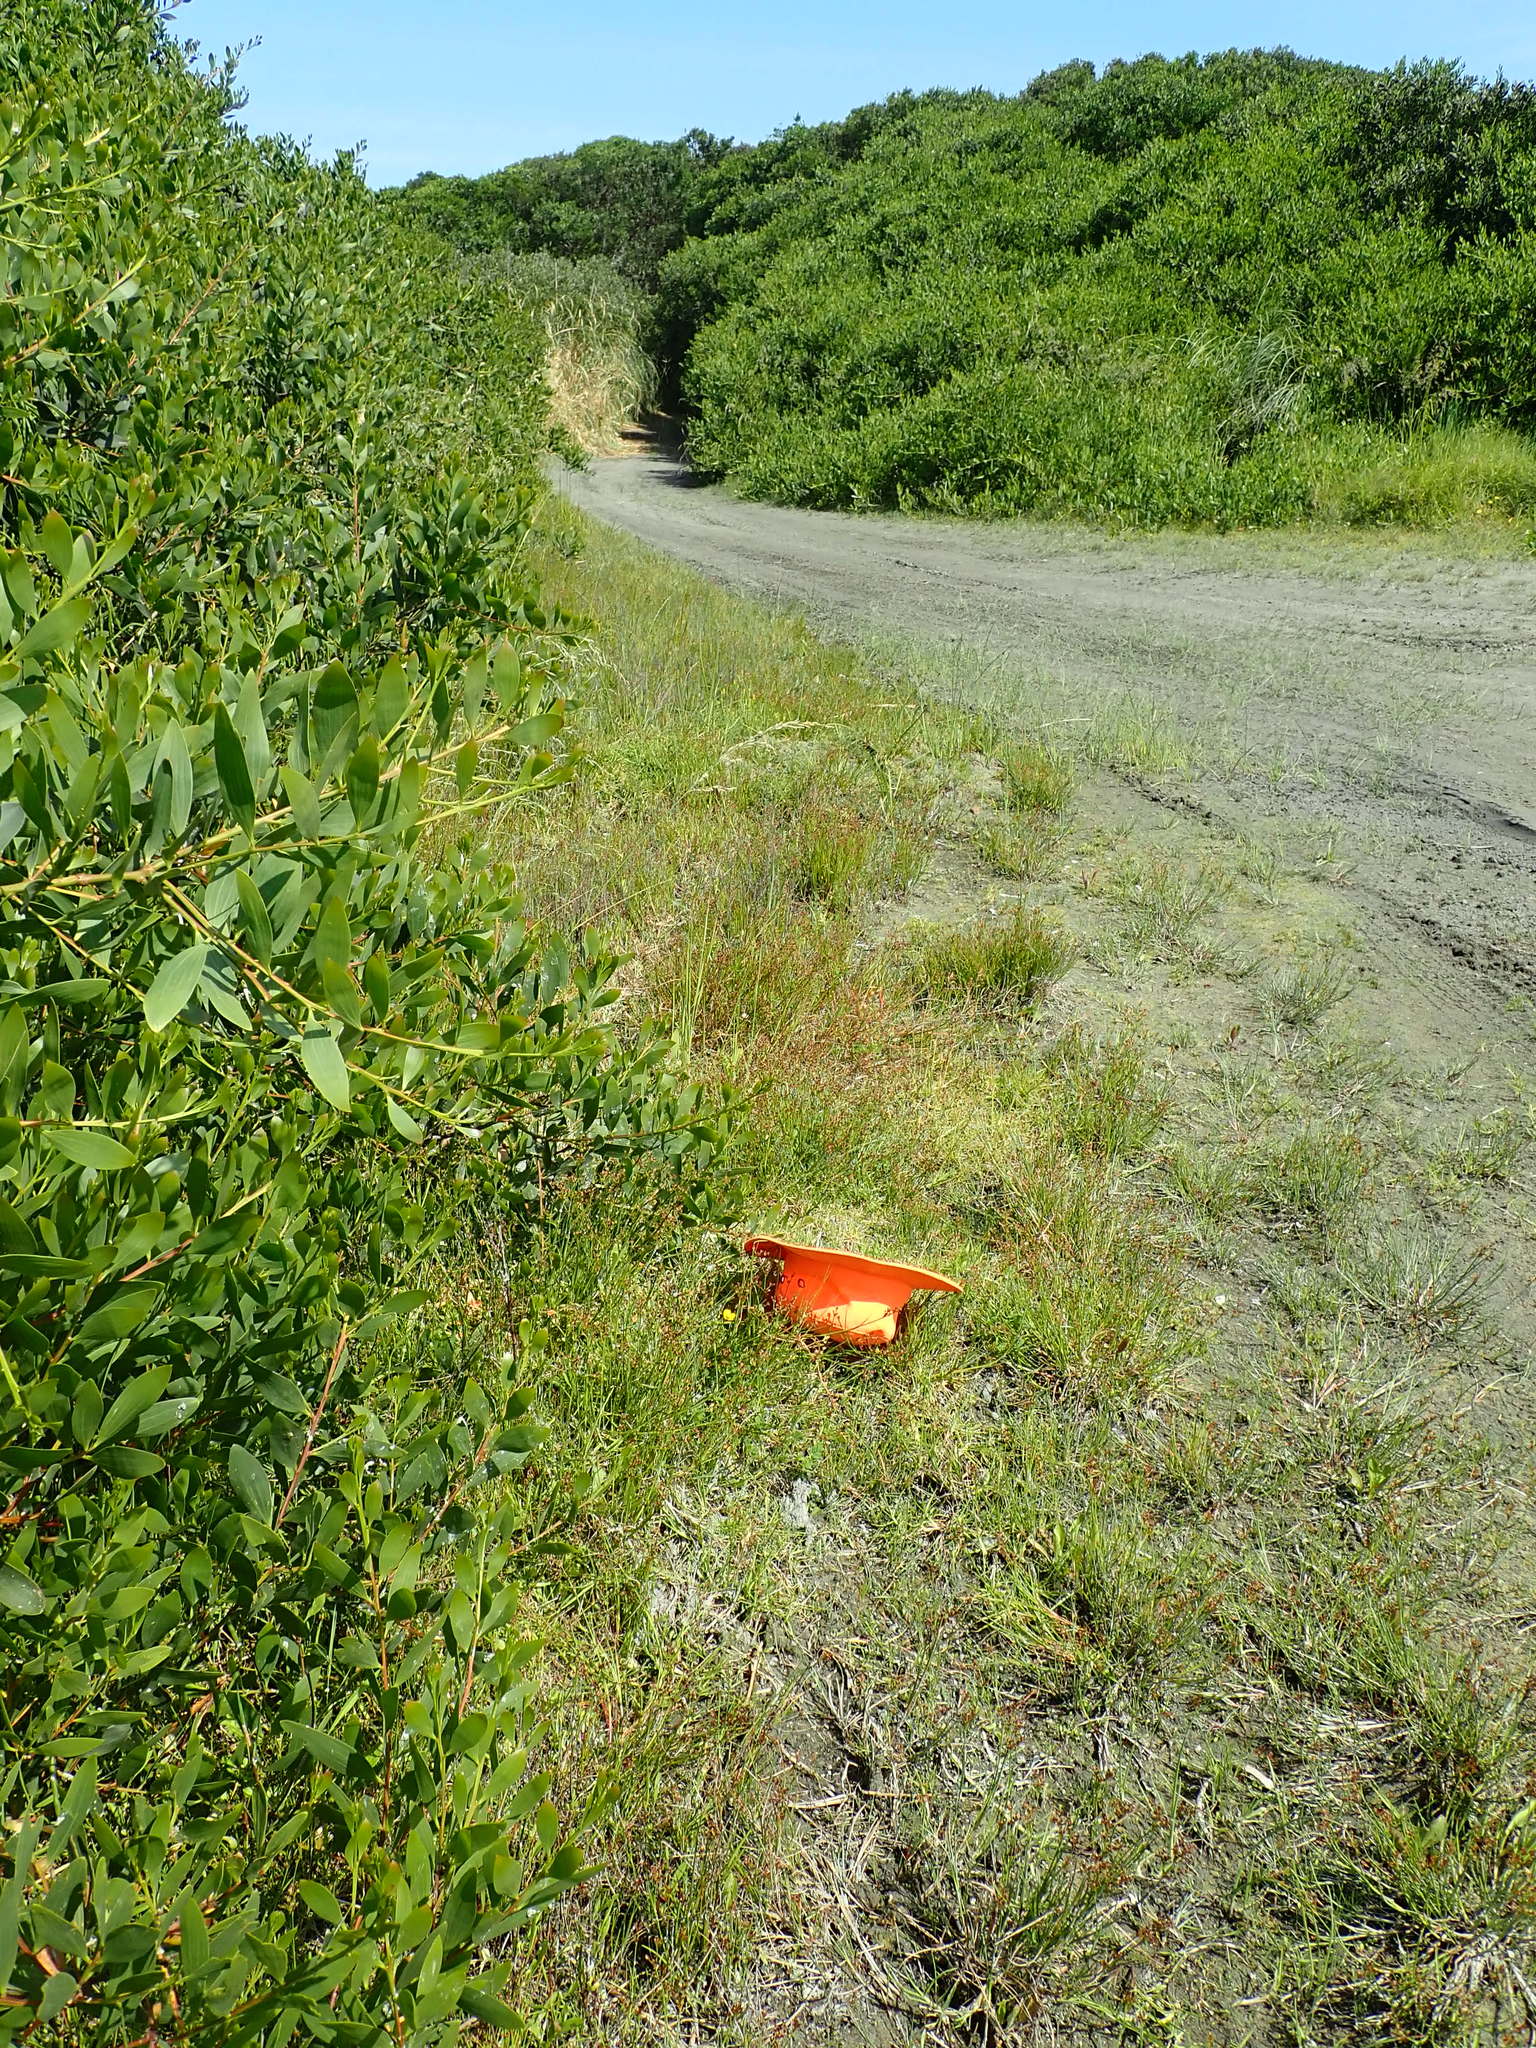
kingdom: Plantae
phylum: Tracheophyta
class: Magnoliopsida
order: Ericales
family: Primulaceae
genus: Lysimachia
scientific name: Lysimachia arvensis
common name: Scarlet pimpernel
